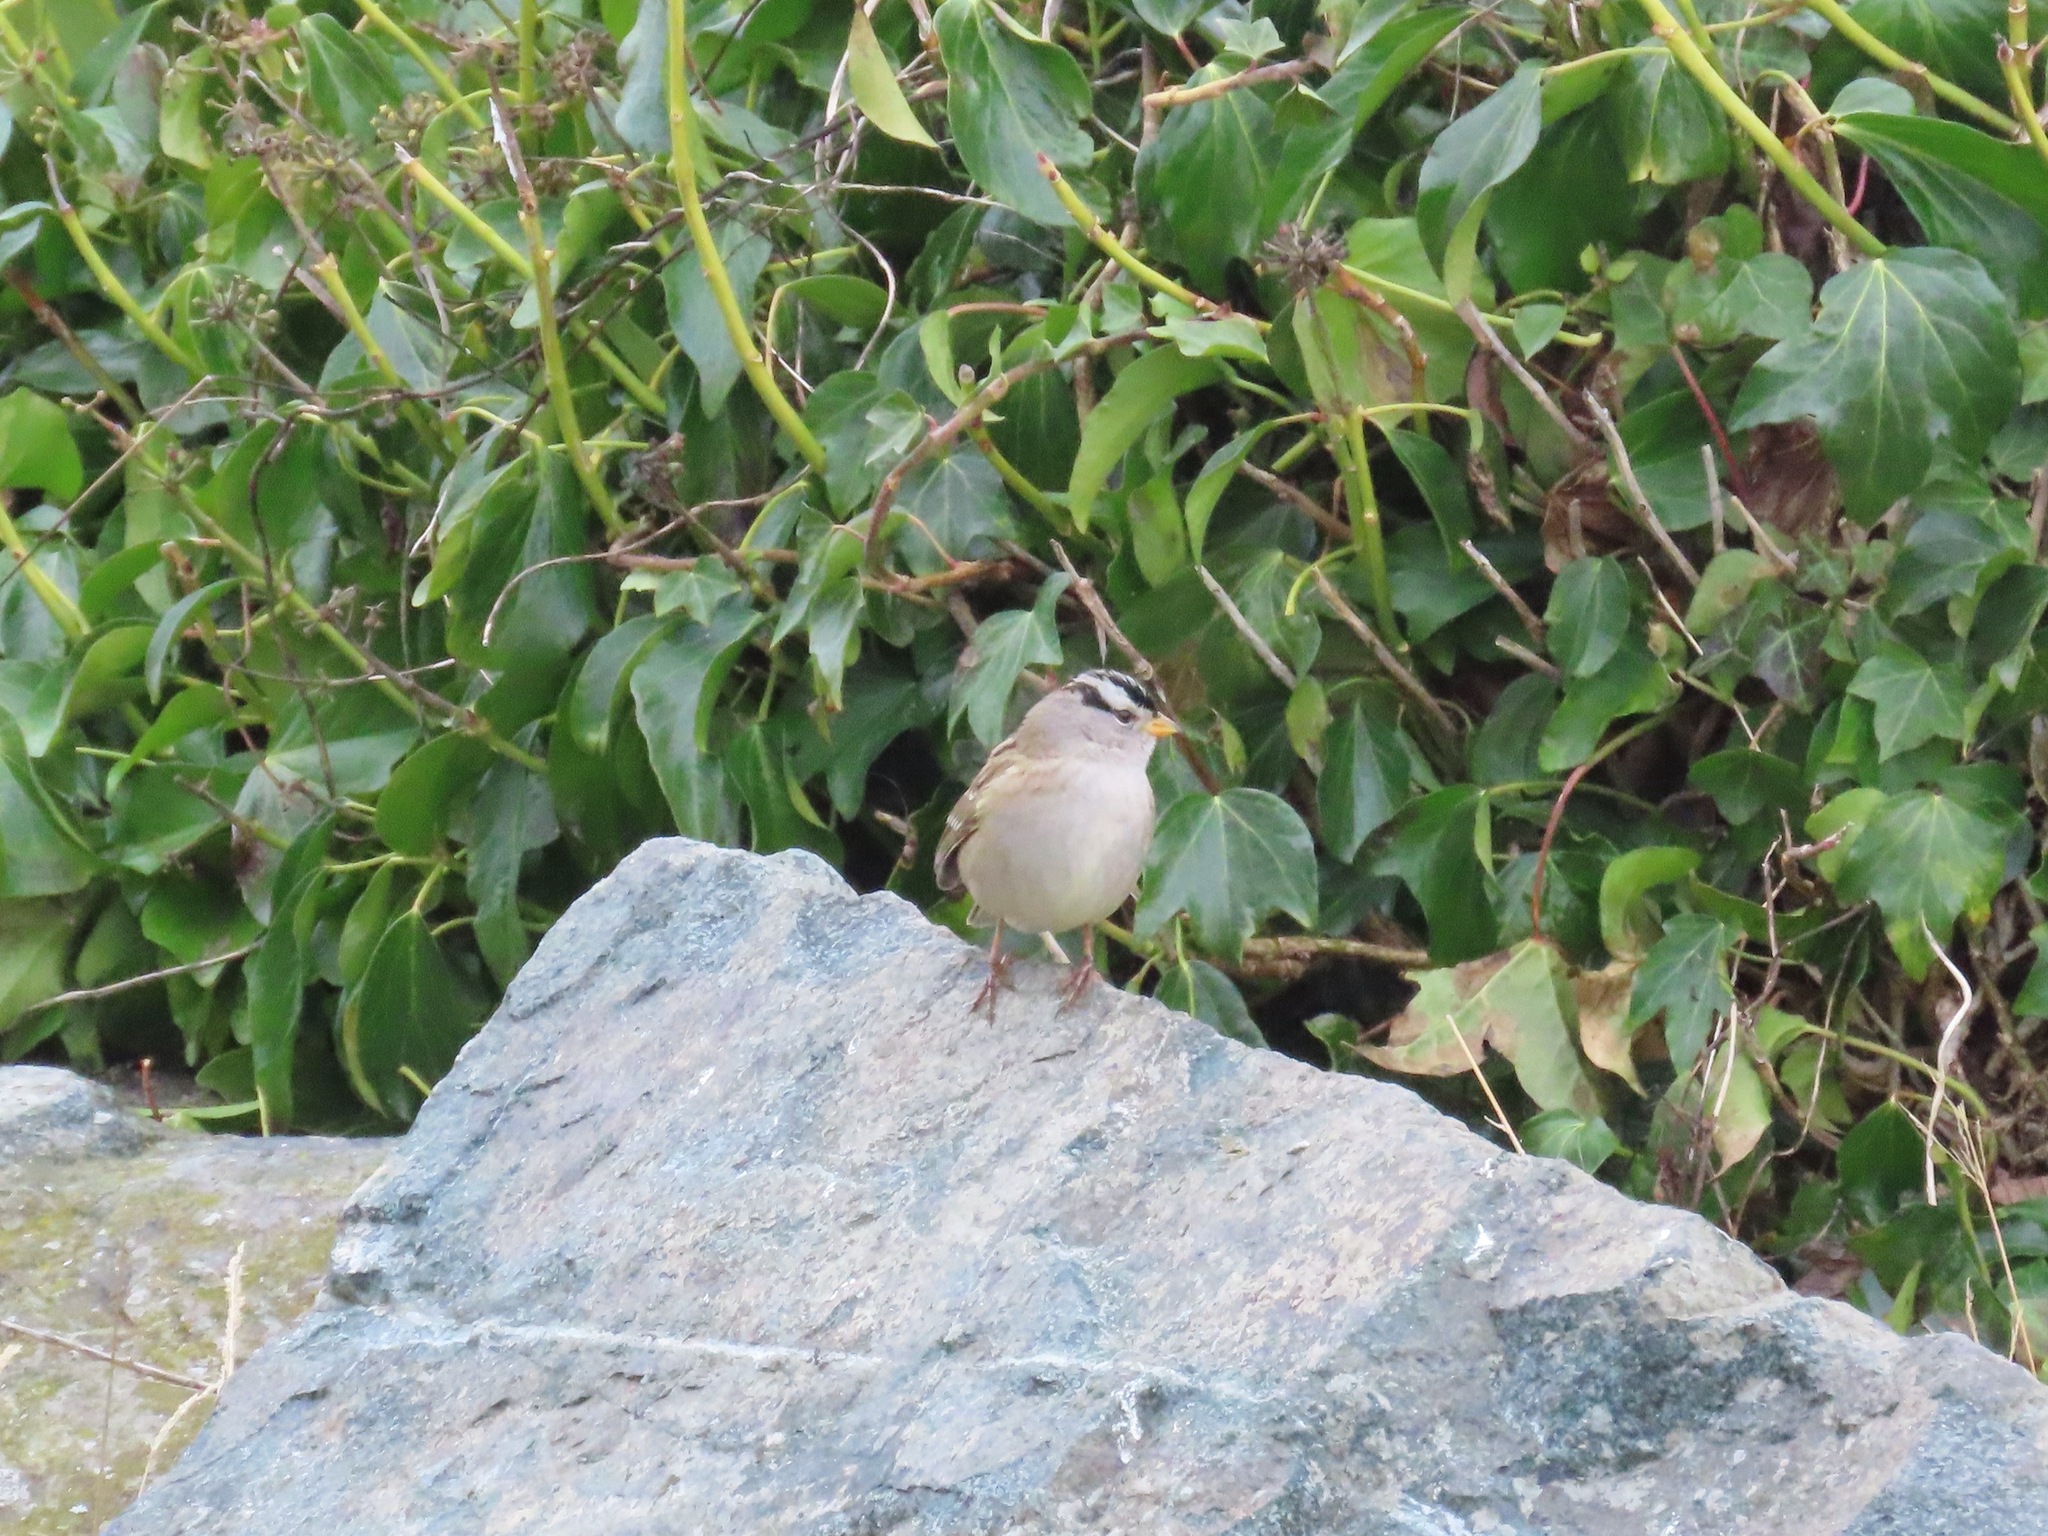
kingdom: Animalia
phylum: Chordata
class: Aves
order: Passeriformes
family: Passerellidae
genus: Zonotrichia
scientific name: Zonotrichia leucophrys
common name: White-crowned sparrow
